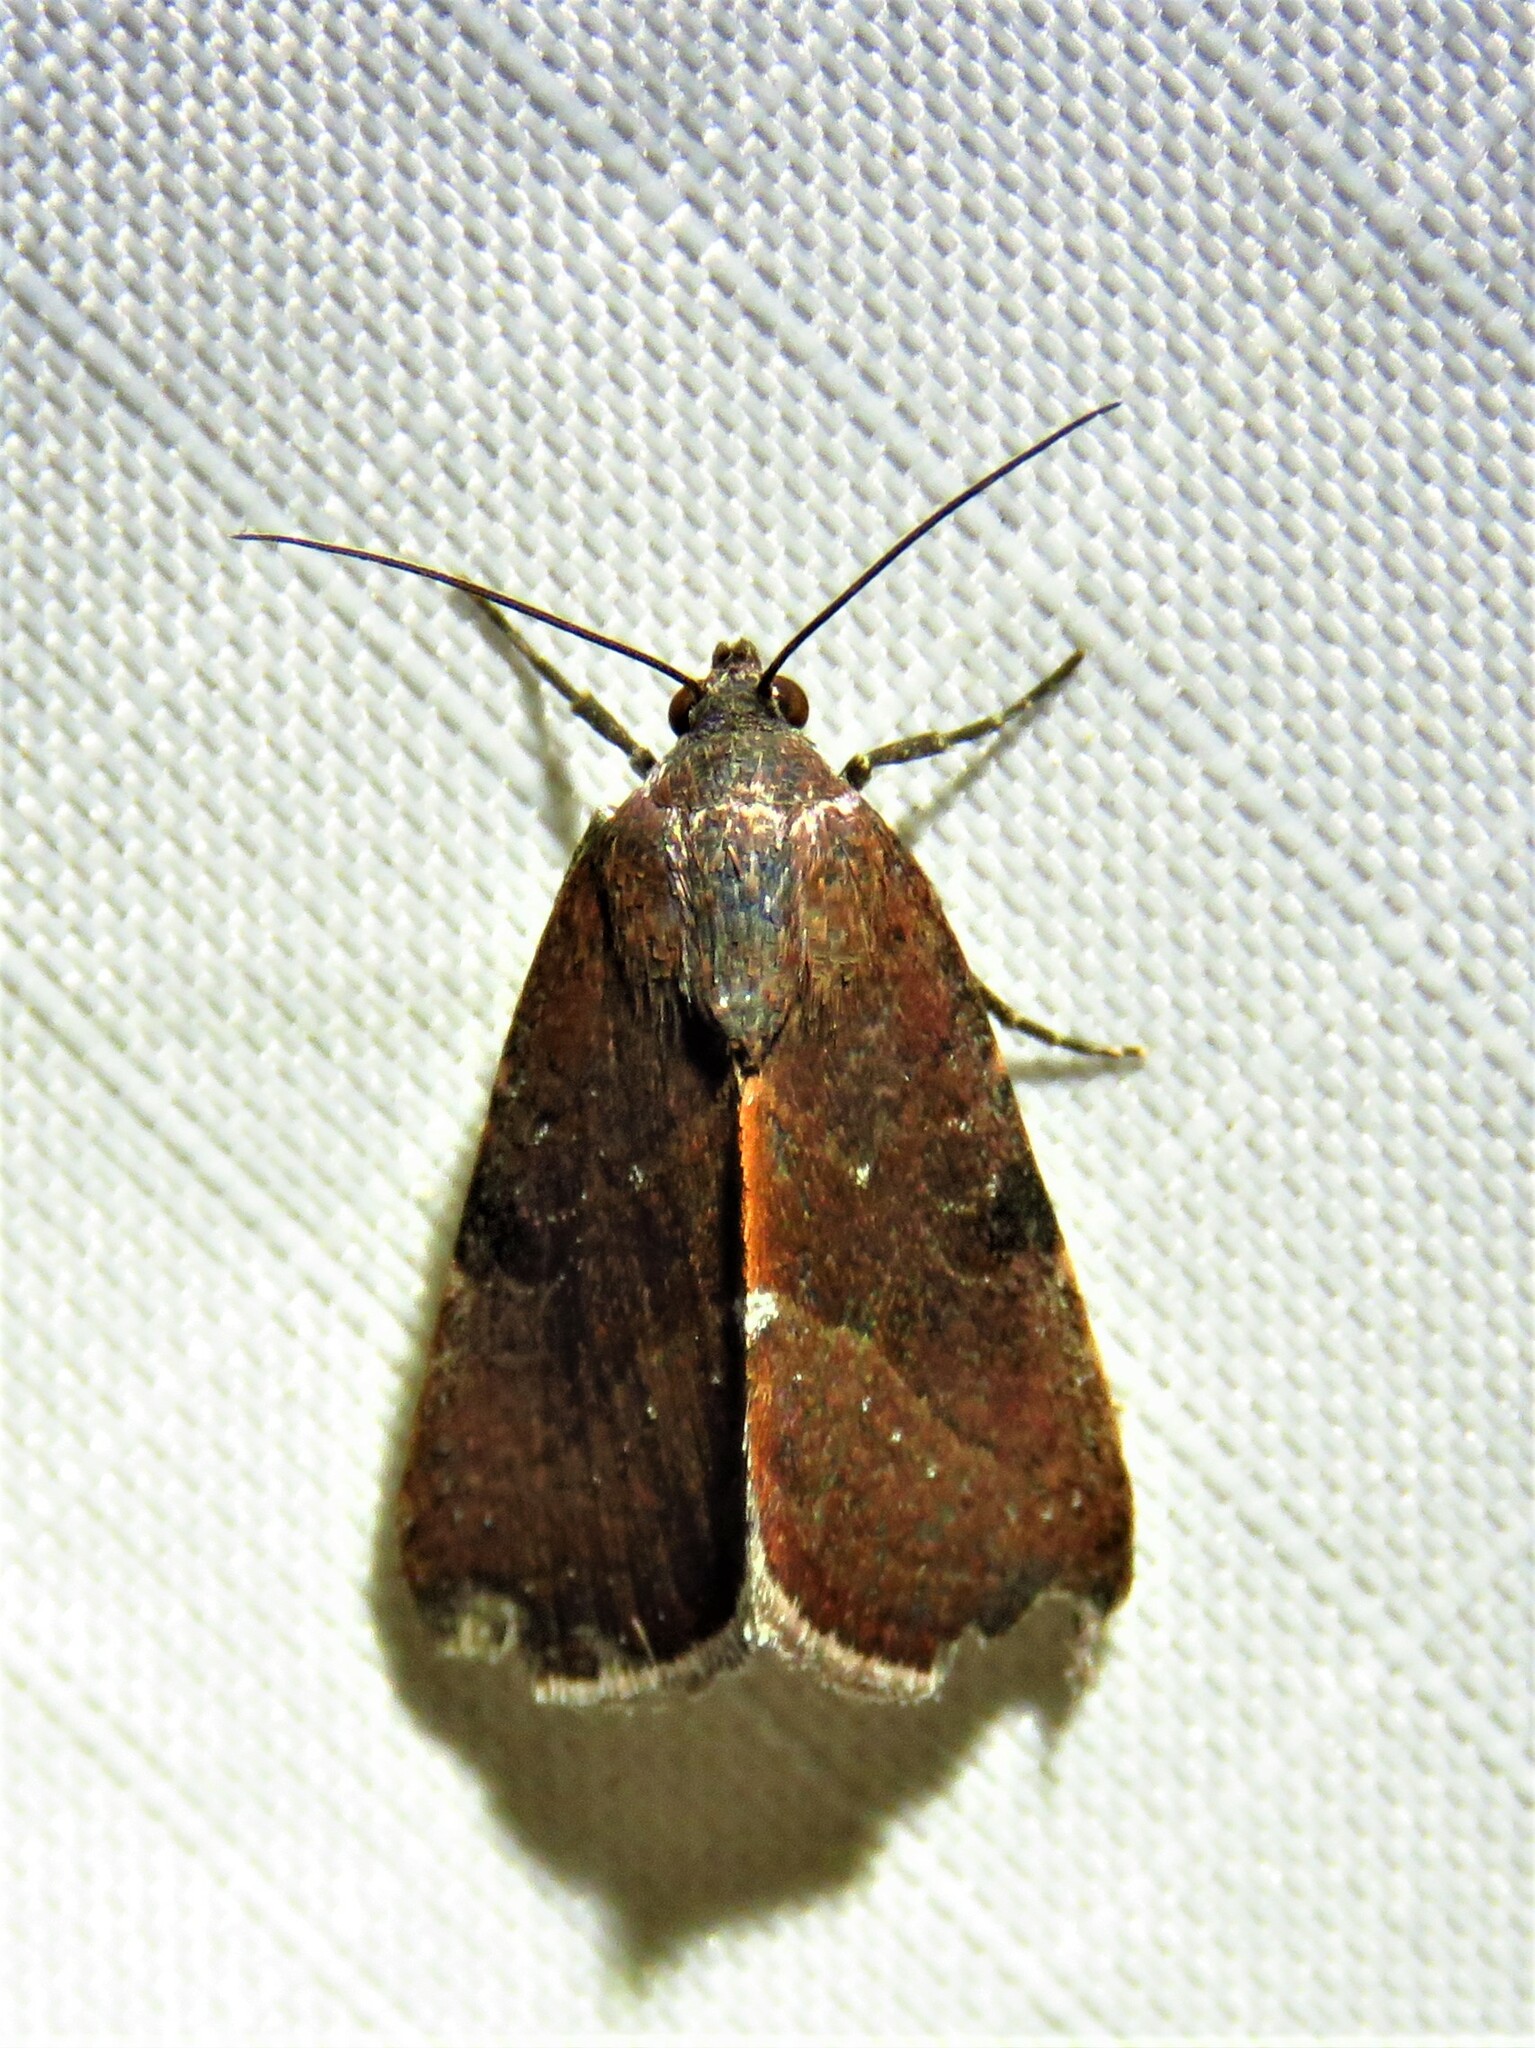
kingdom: Animalia
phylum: Arthropoda
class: Insecta
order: Lepidoptera
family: Noctuidae
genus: Galgula
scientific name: Galgula partita
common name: Wedgeling
